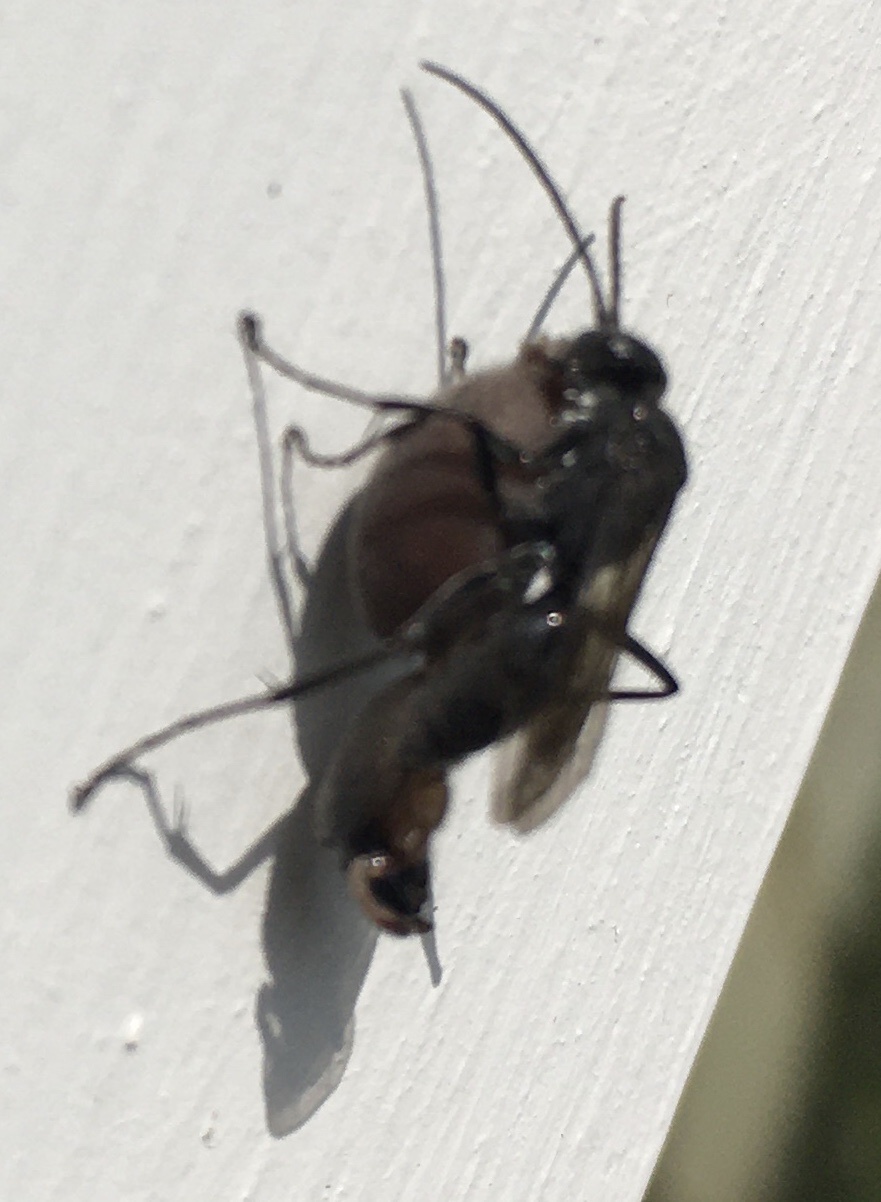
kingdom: Animalia
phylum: Arthropoda
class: Insecta
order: Hymenoptera
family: Pompilidae
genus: Auplopus
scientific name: Auplopus carbonarius
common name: Spider wasp
